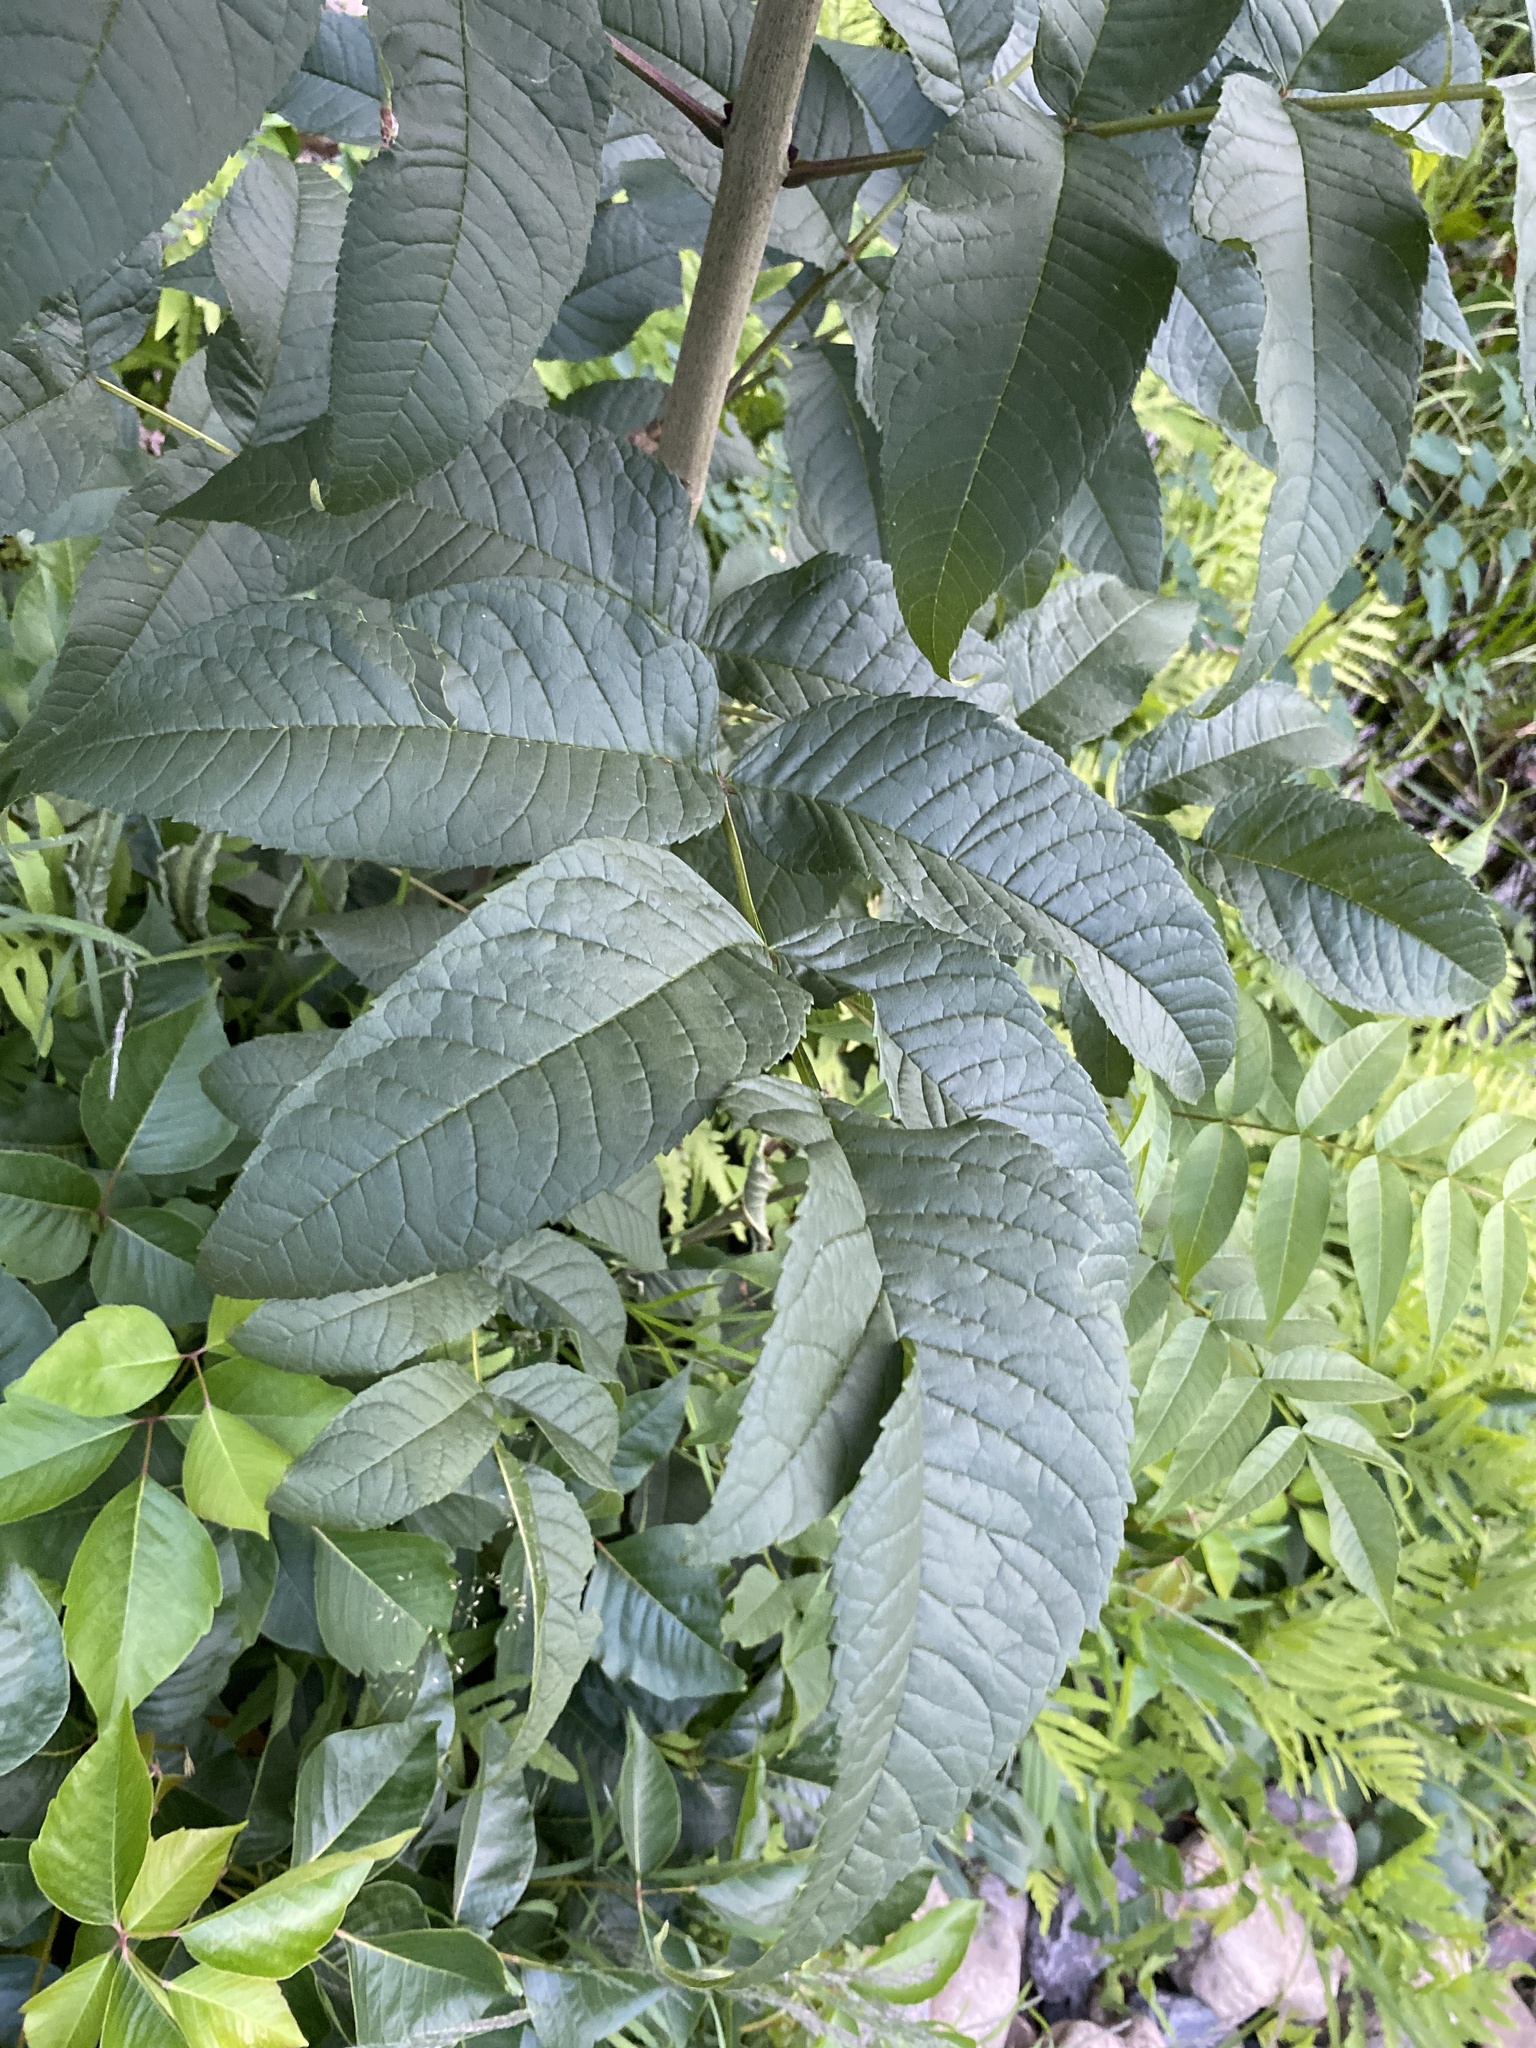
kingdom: Plantae
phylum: Tracheophyta
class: Magnoliopsida
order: Lamiales
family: Oleaceae
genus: Fraxinus
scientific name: Fraxinus nigra
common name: Black ash
